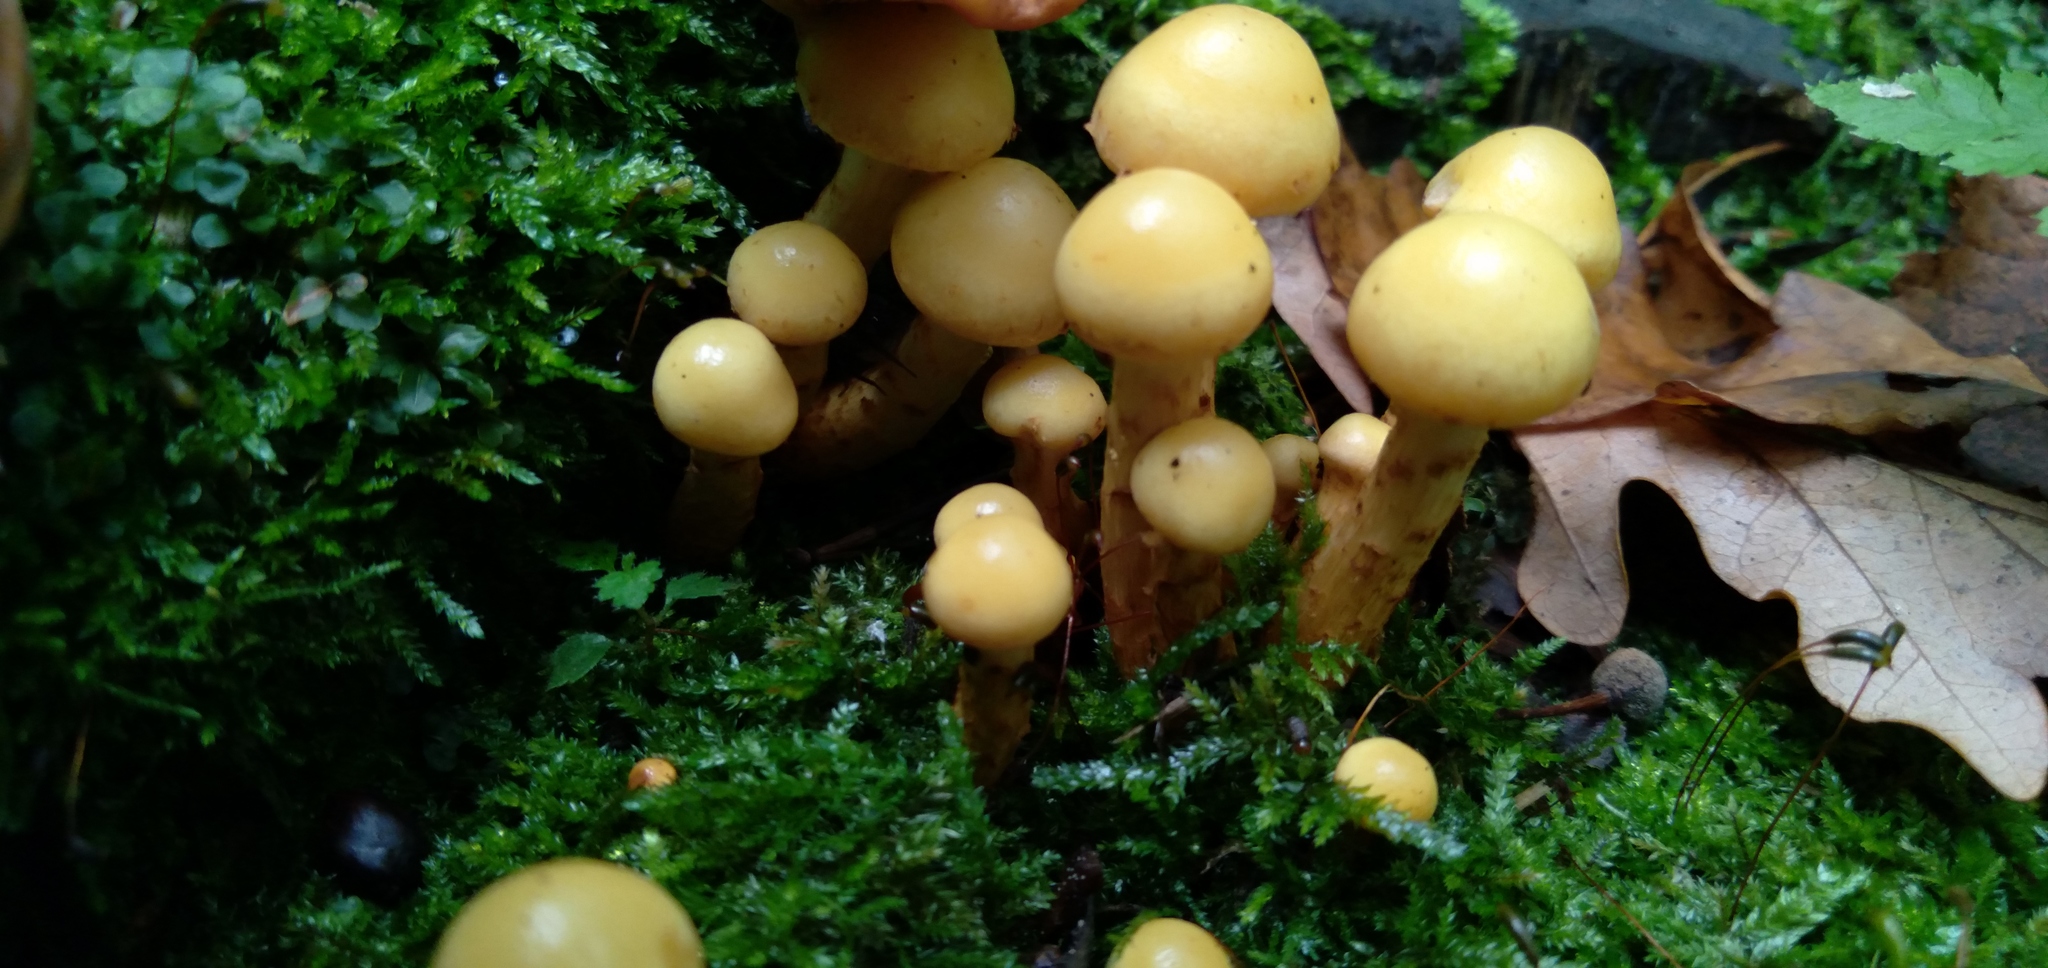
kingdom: Fungi
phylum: Basidiomycota
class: Agaricomycetes
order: Agaricales
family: Hymenogastraceae
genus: Flammula
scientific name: Flammula alnicola
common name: Alder scalycap
